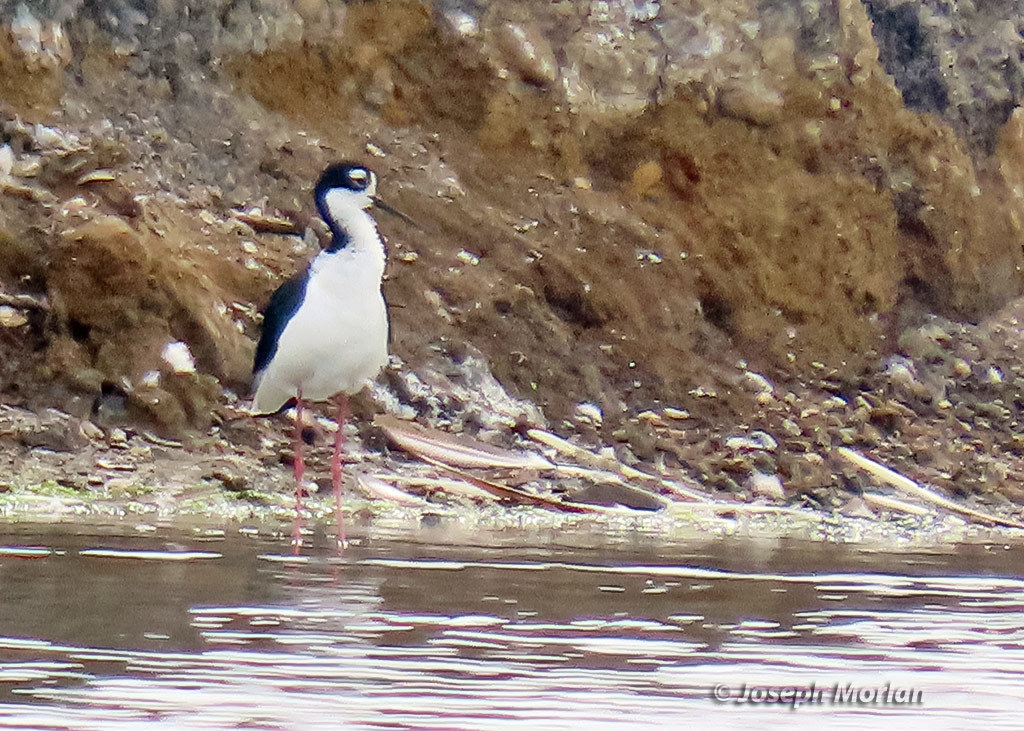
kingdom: Animalia
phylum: Chordata
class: Aves
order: Charadriiformes
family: Recurvirostridae
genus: Himantopus
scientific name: Himantopus mexicanus
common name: Black-necked stilt
